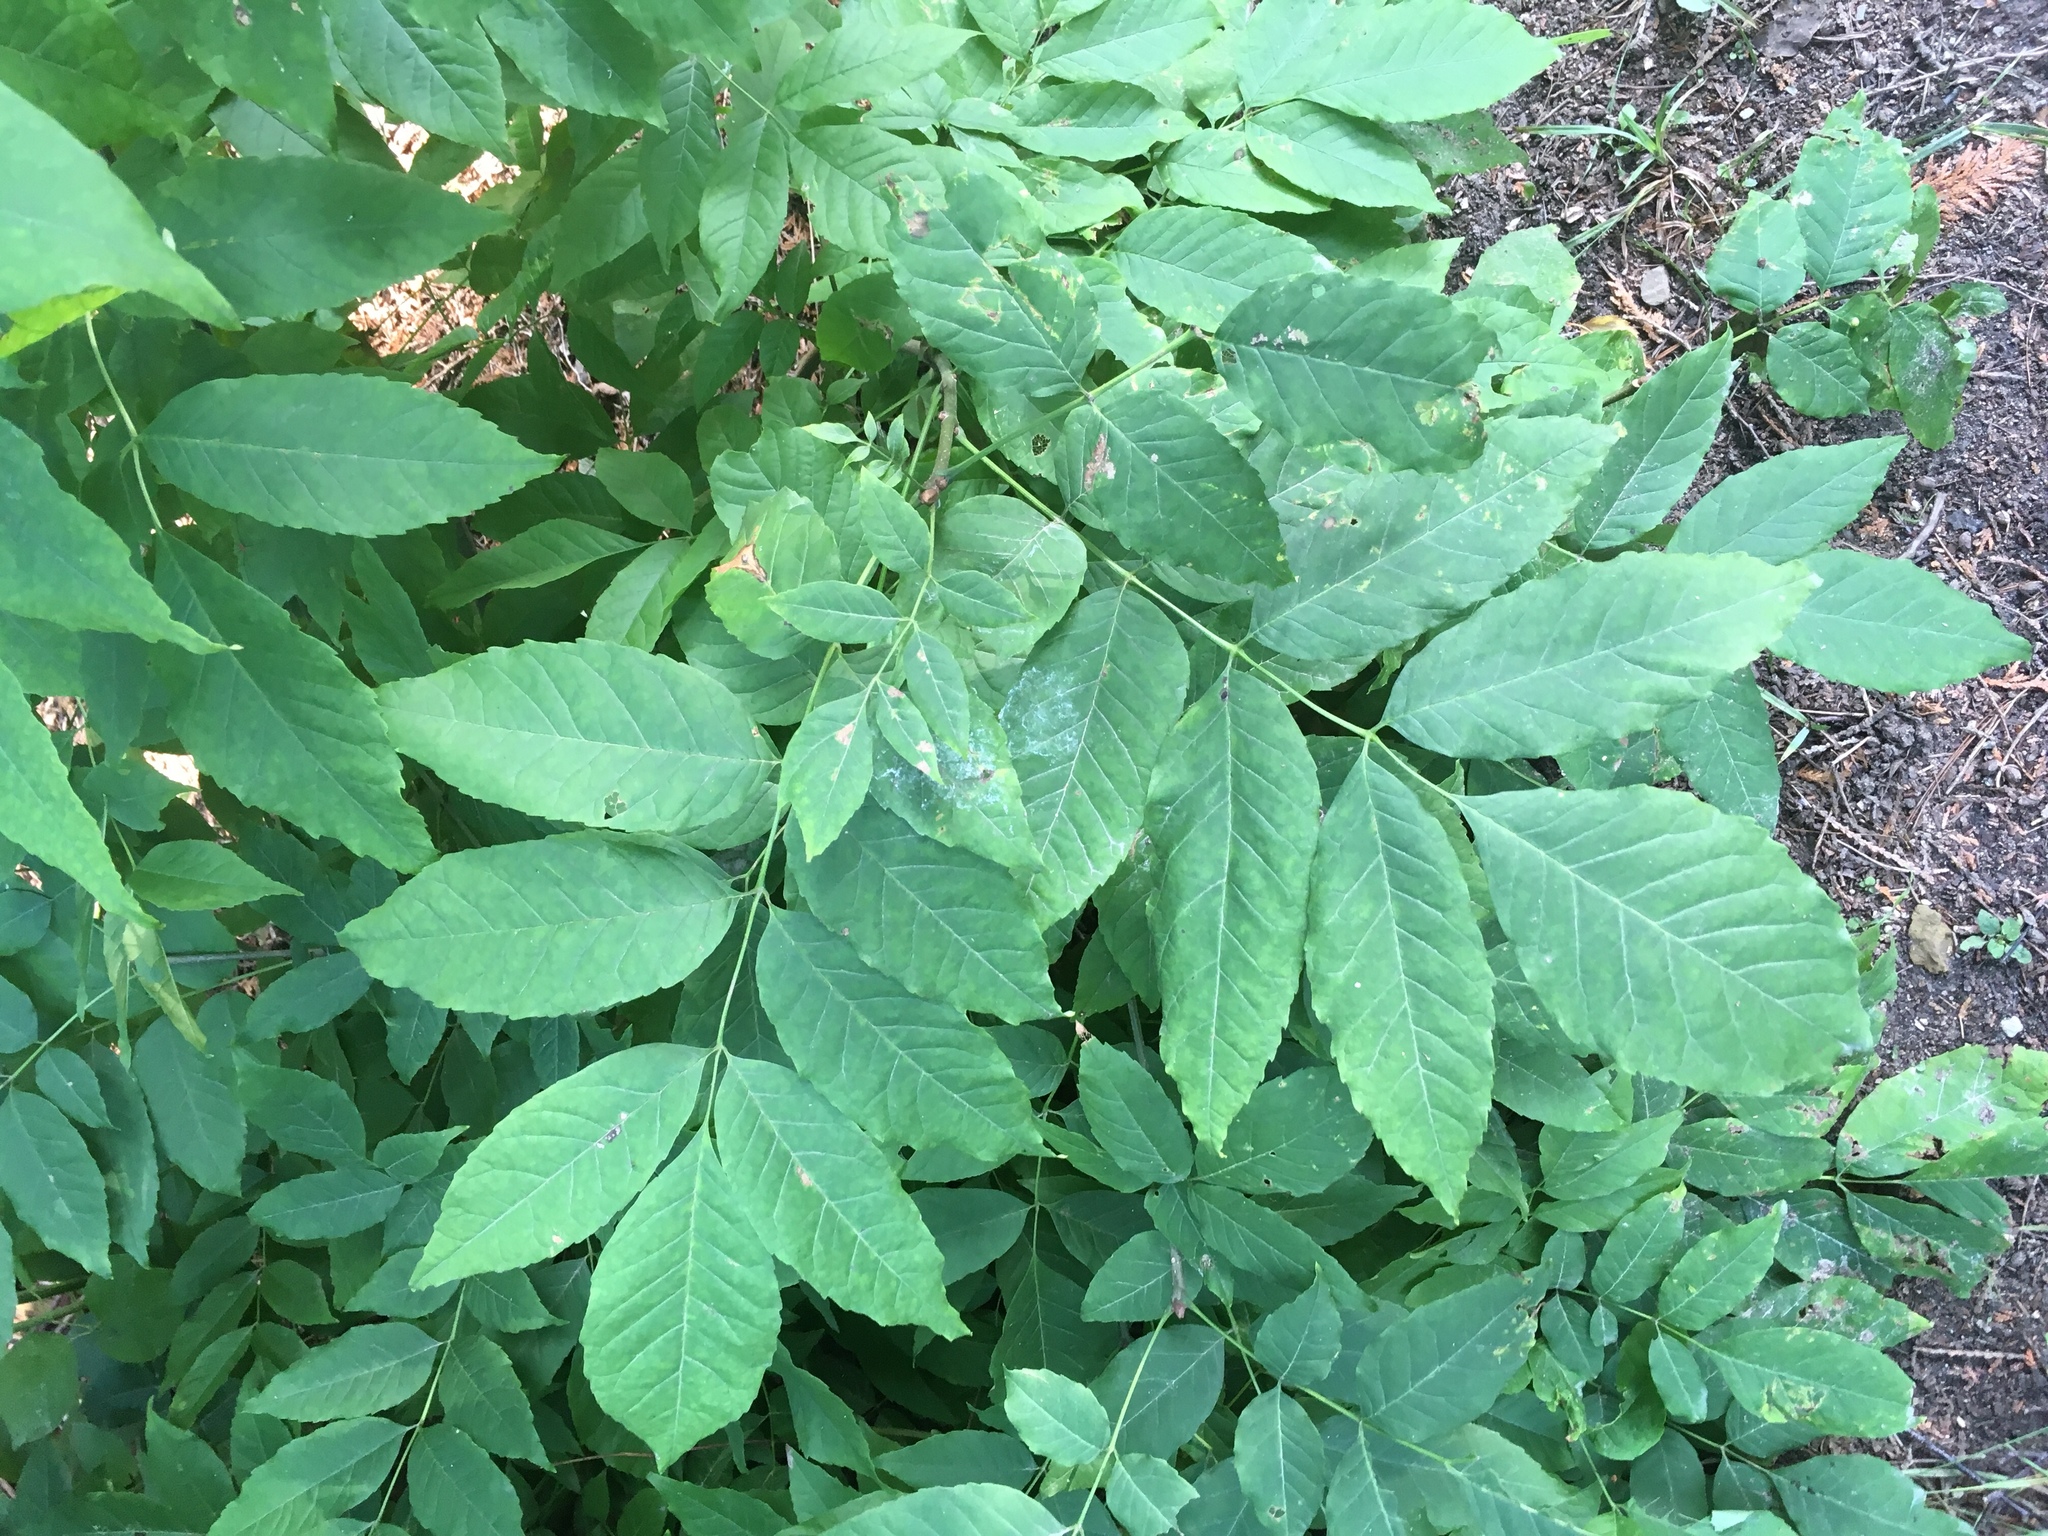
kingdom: Plantae
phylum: Tracheophyta
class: Magnoliopsida
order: Lamiales
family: Oleaceae
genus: Fraxinus
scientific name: Fraxinus americana
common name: White ash
